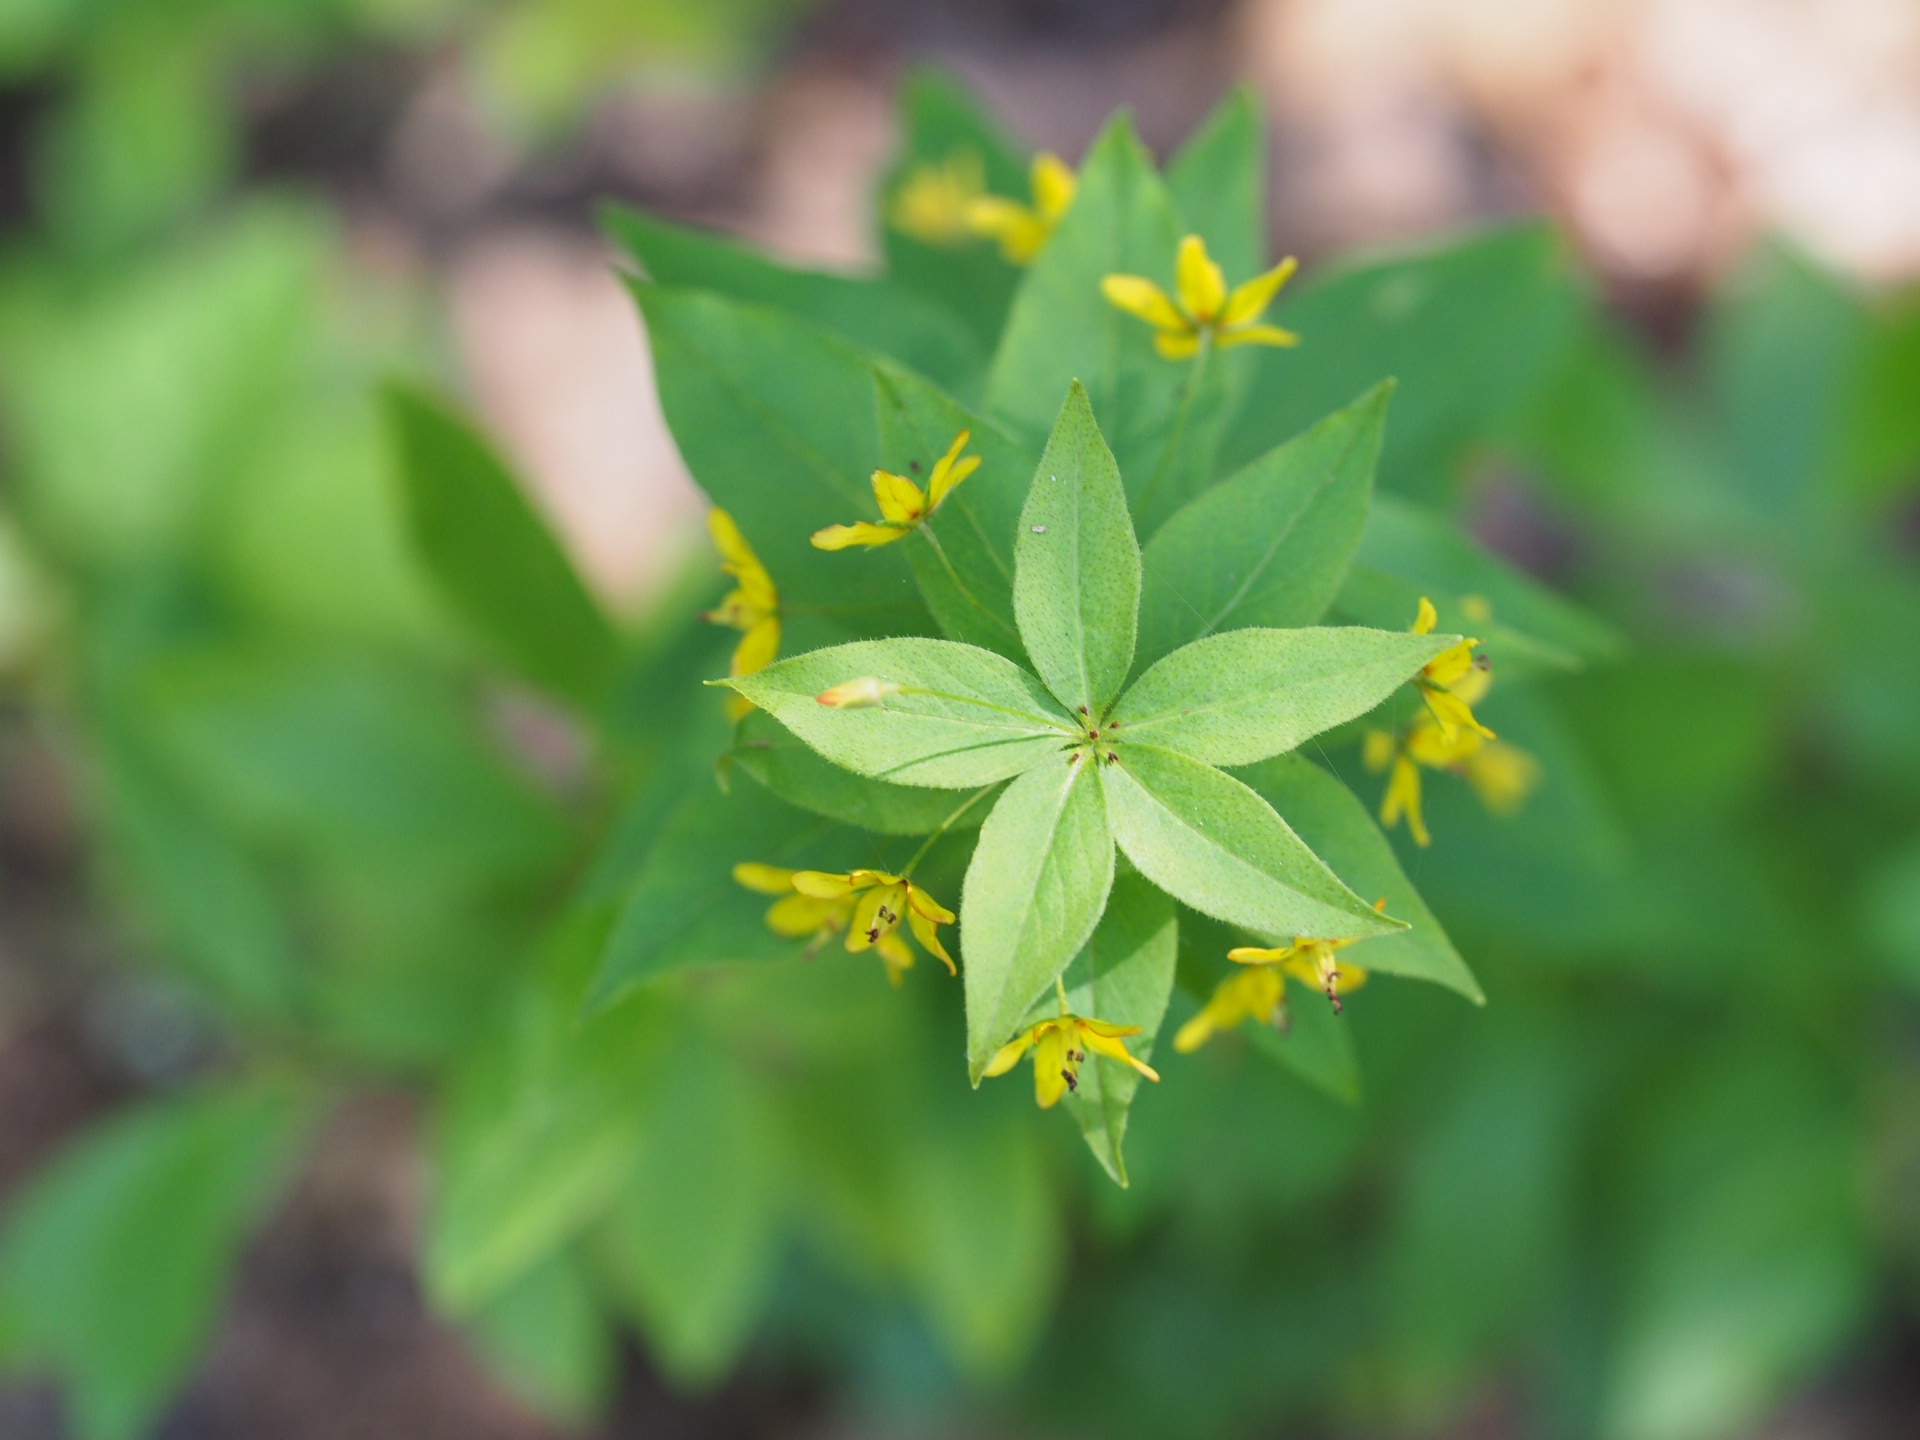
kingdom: Plantae
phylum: Tracheophyta
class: Magnoliopsida
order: Ericales
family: Primulaceae
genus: Lysimachia
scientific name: Lysimachia quadrifolia
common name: Whorled loosestrife
